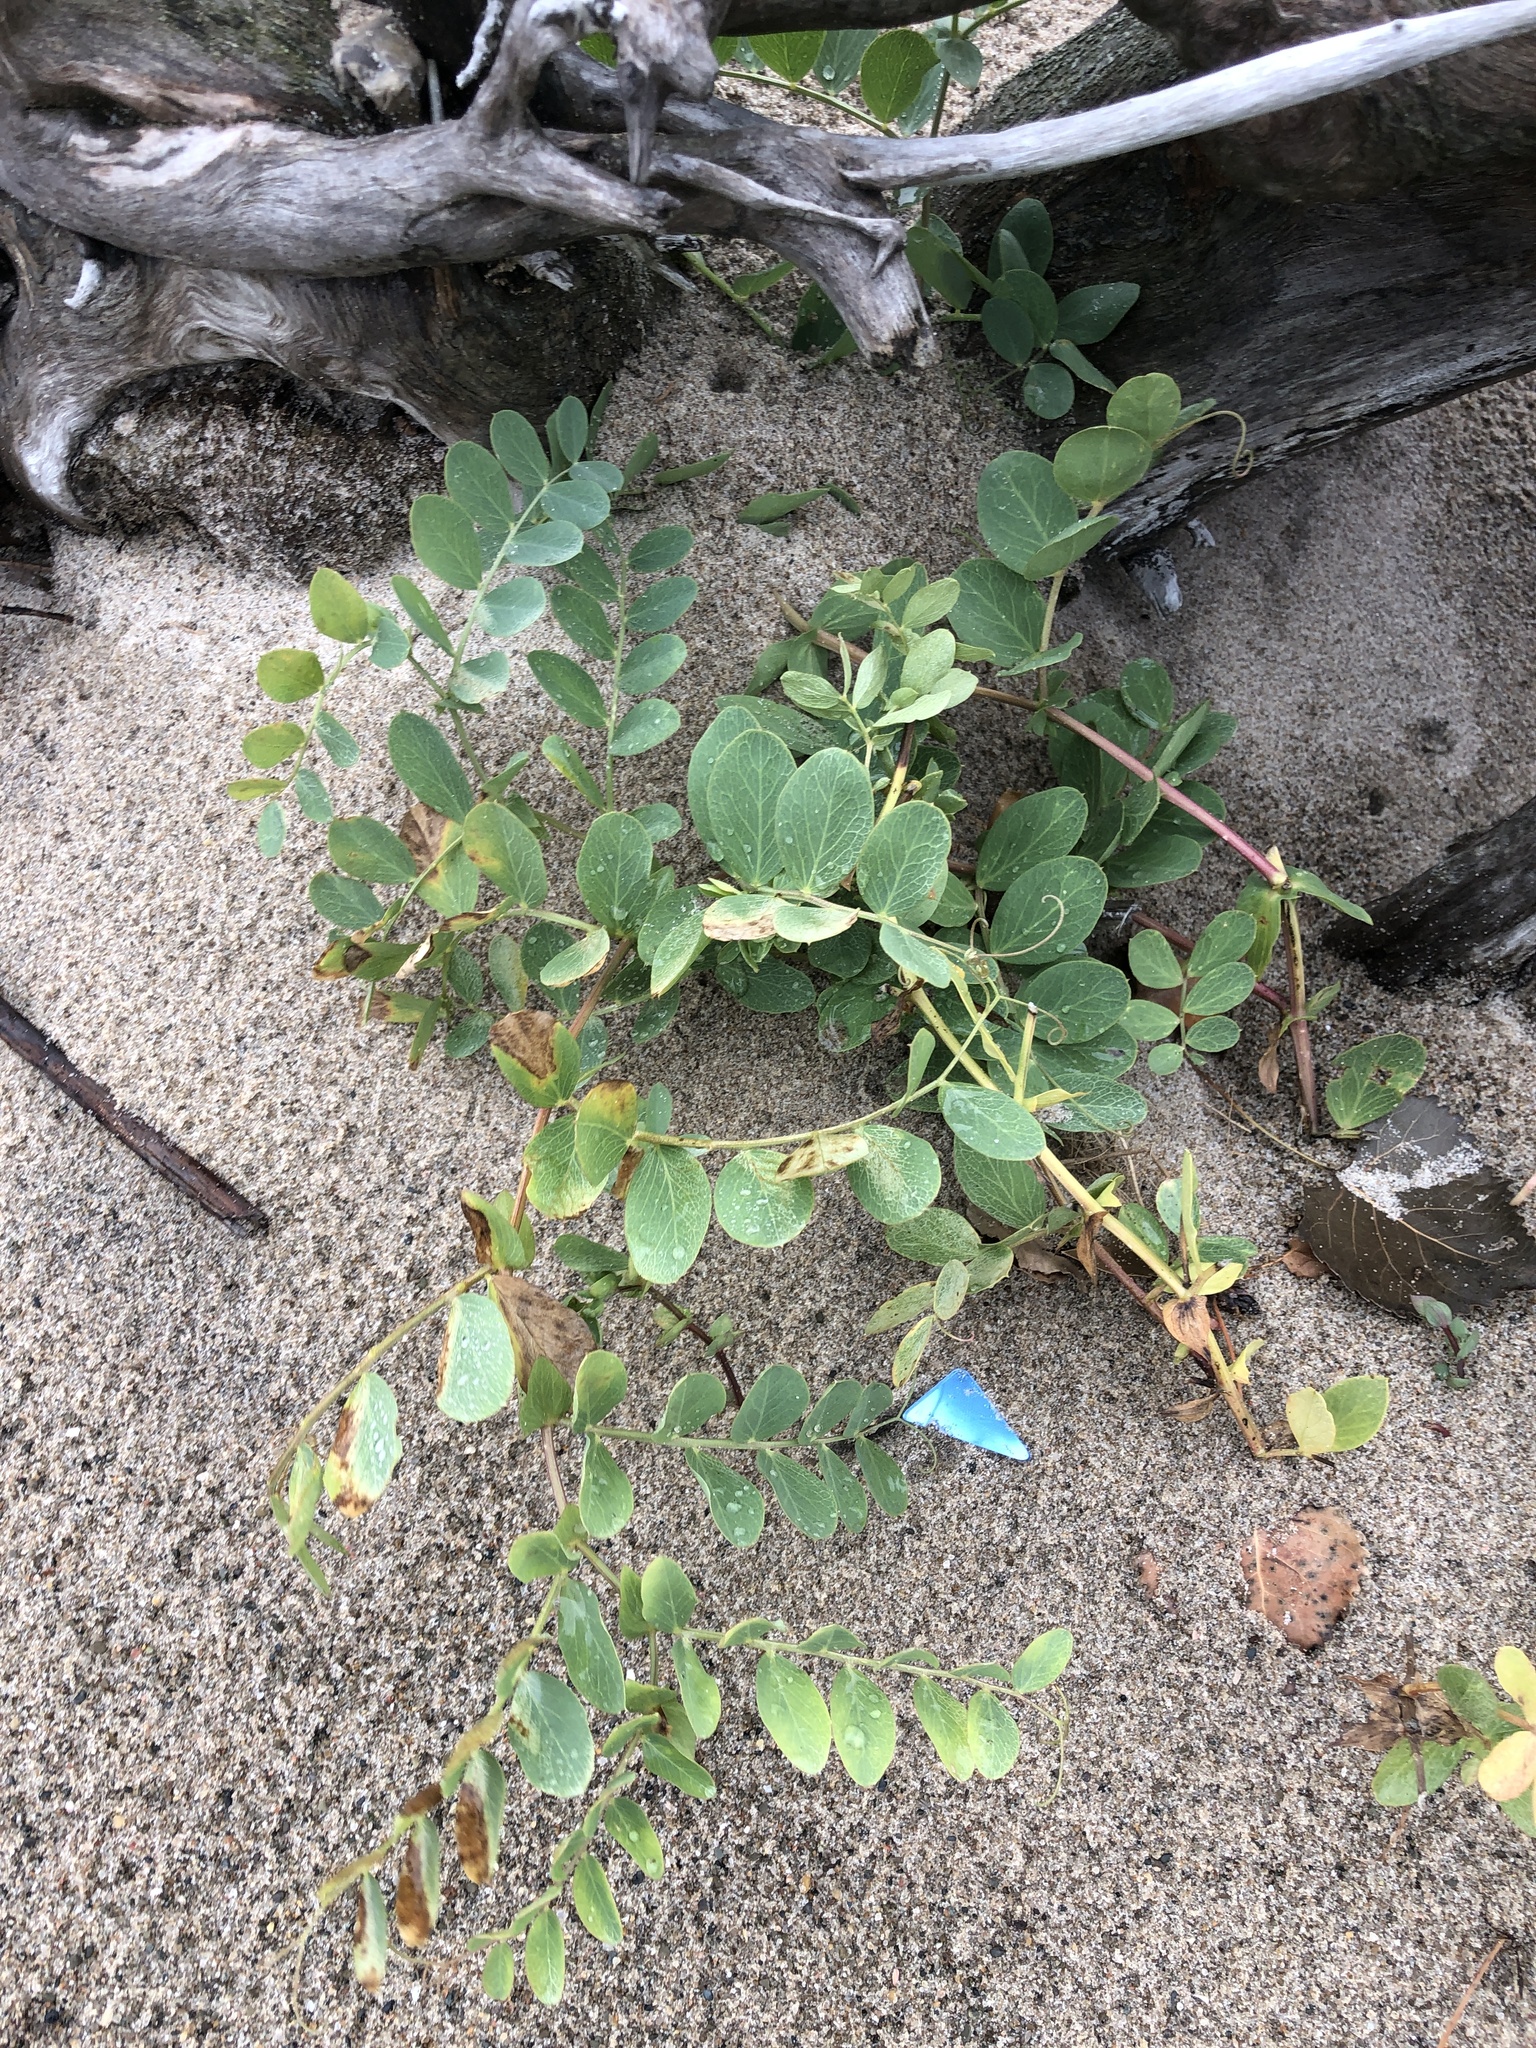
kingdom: Plantae
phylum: Tracheophyta
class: Magnoliopsida
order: Fabales
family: Fabaceae
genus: Lathyrus
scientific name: Lathyrus japonicus
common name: Sea pea
